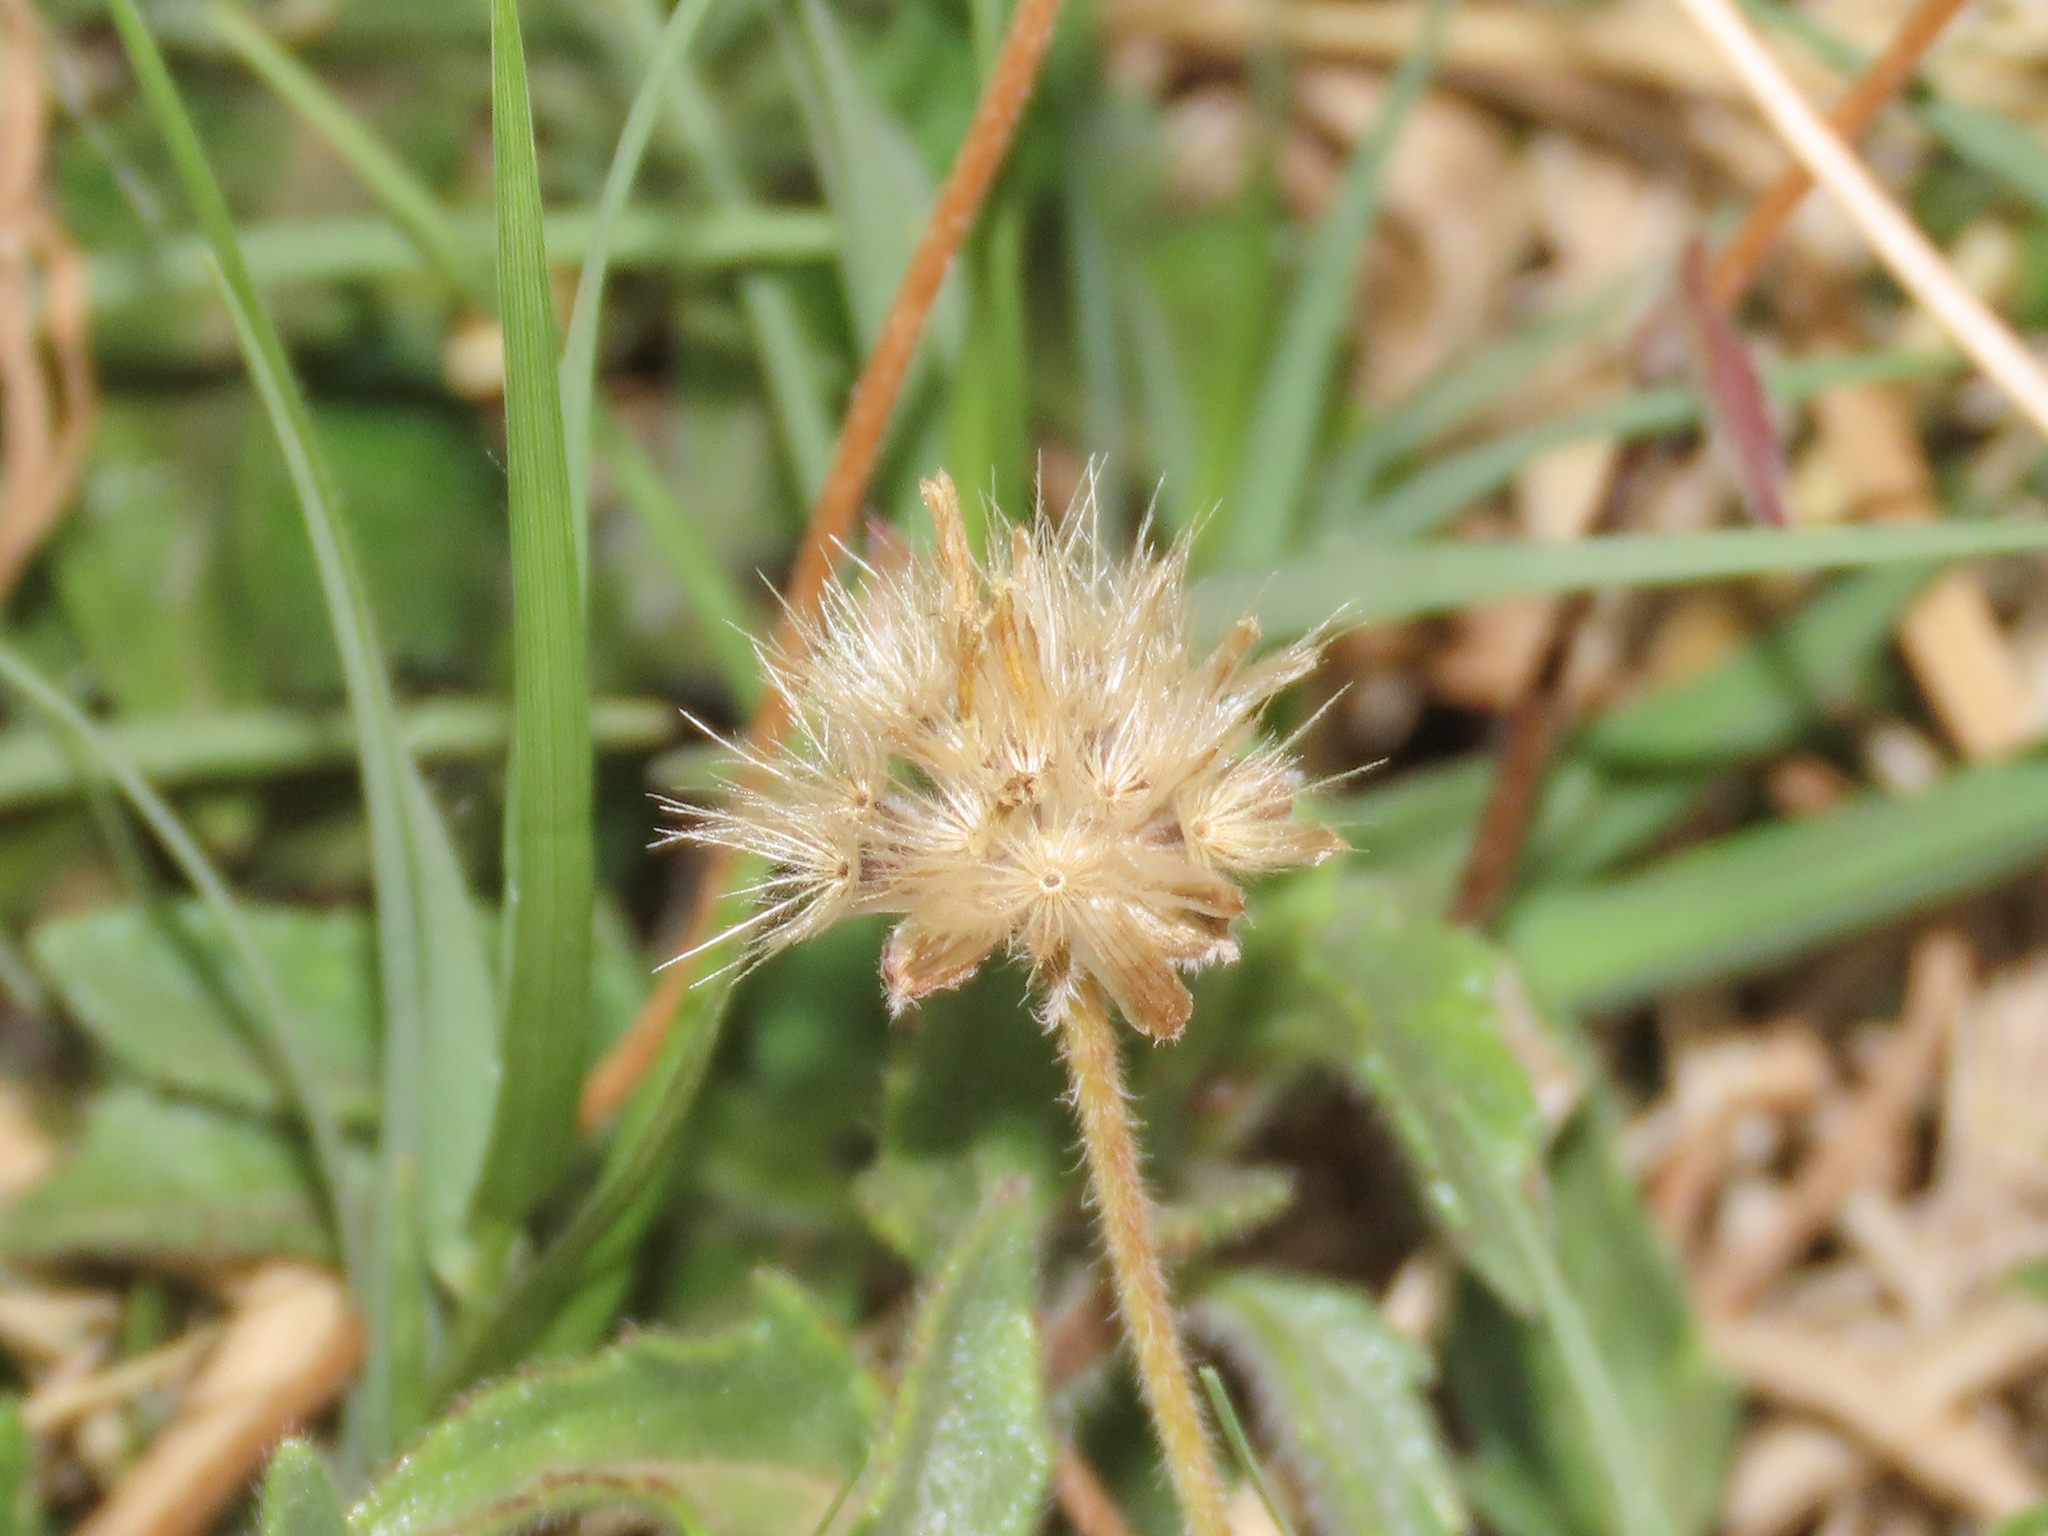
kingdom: Plantae
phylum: Tracheophyta
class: Magnoliopsida
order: Asterales
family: Asteraceae
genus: Tridax
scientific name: Tridax procumbens
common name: Coatbuttons
